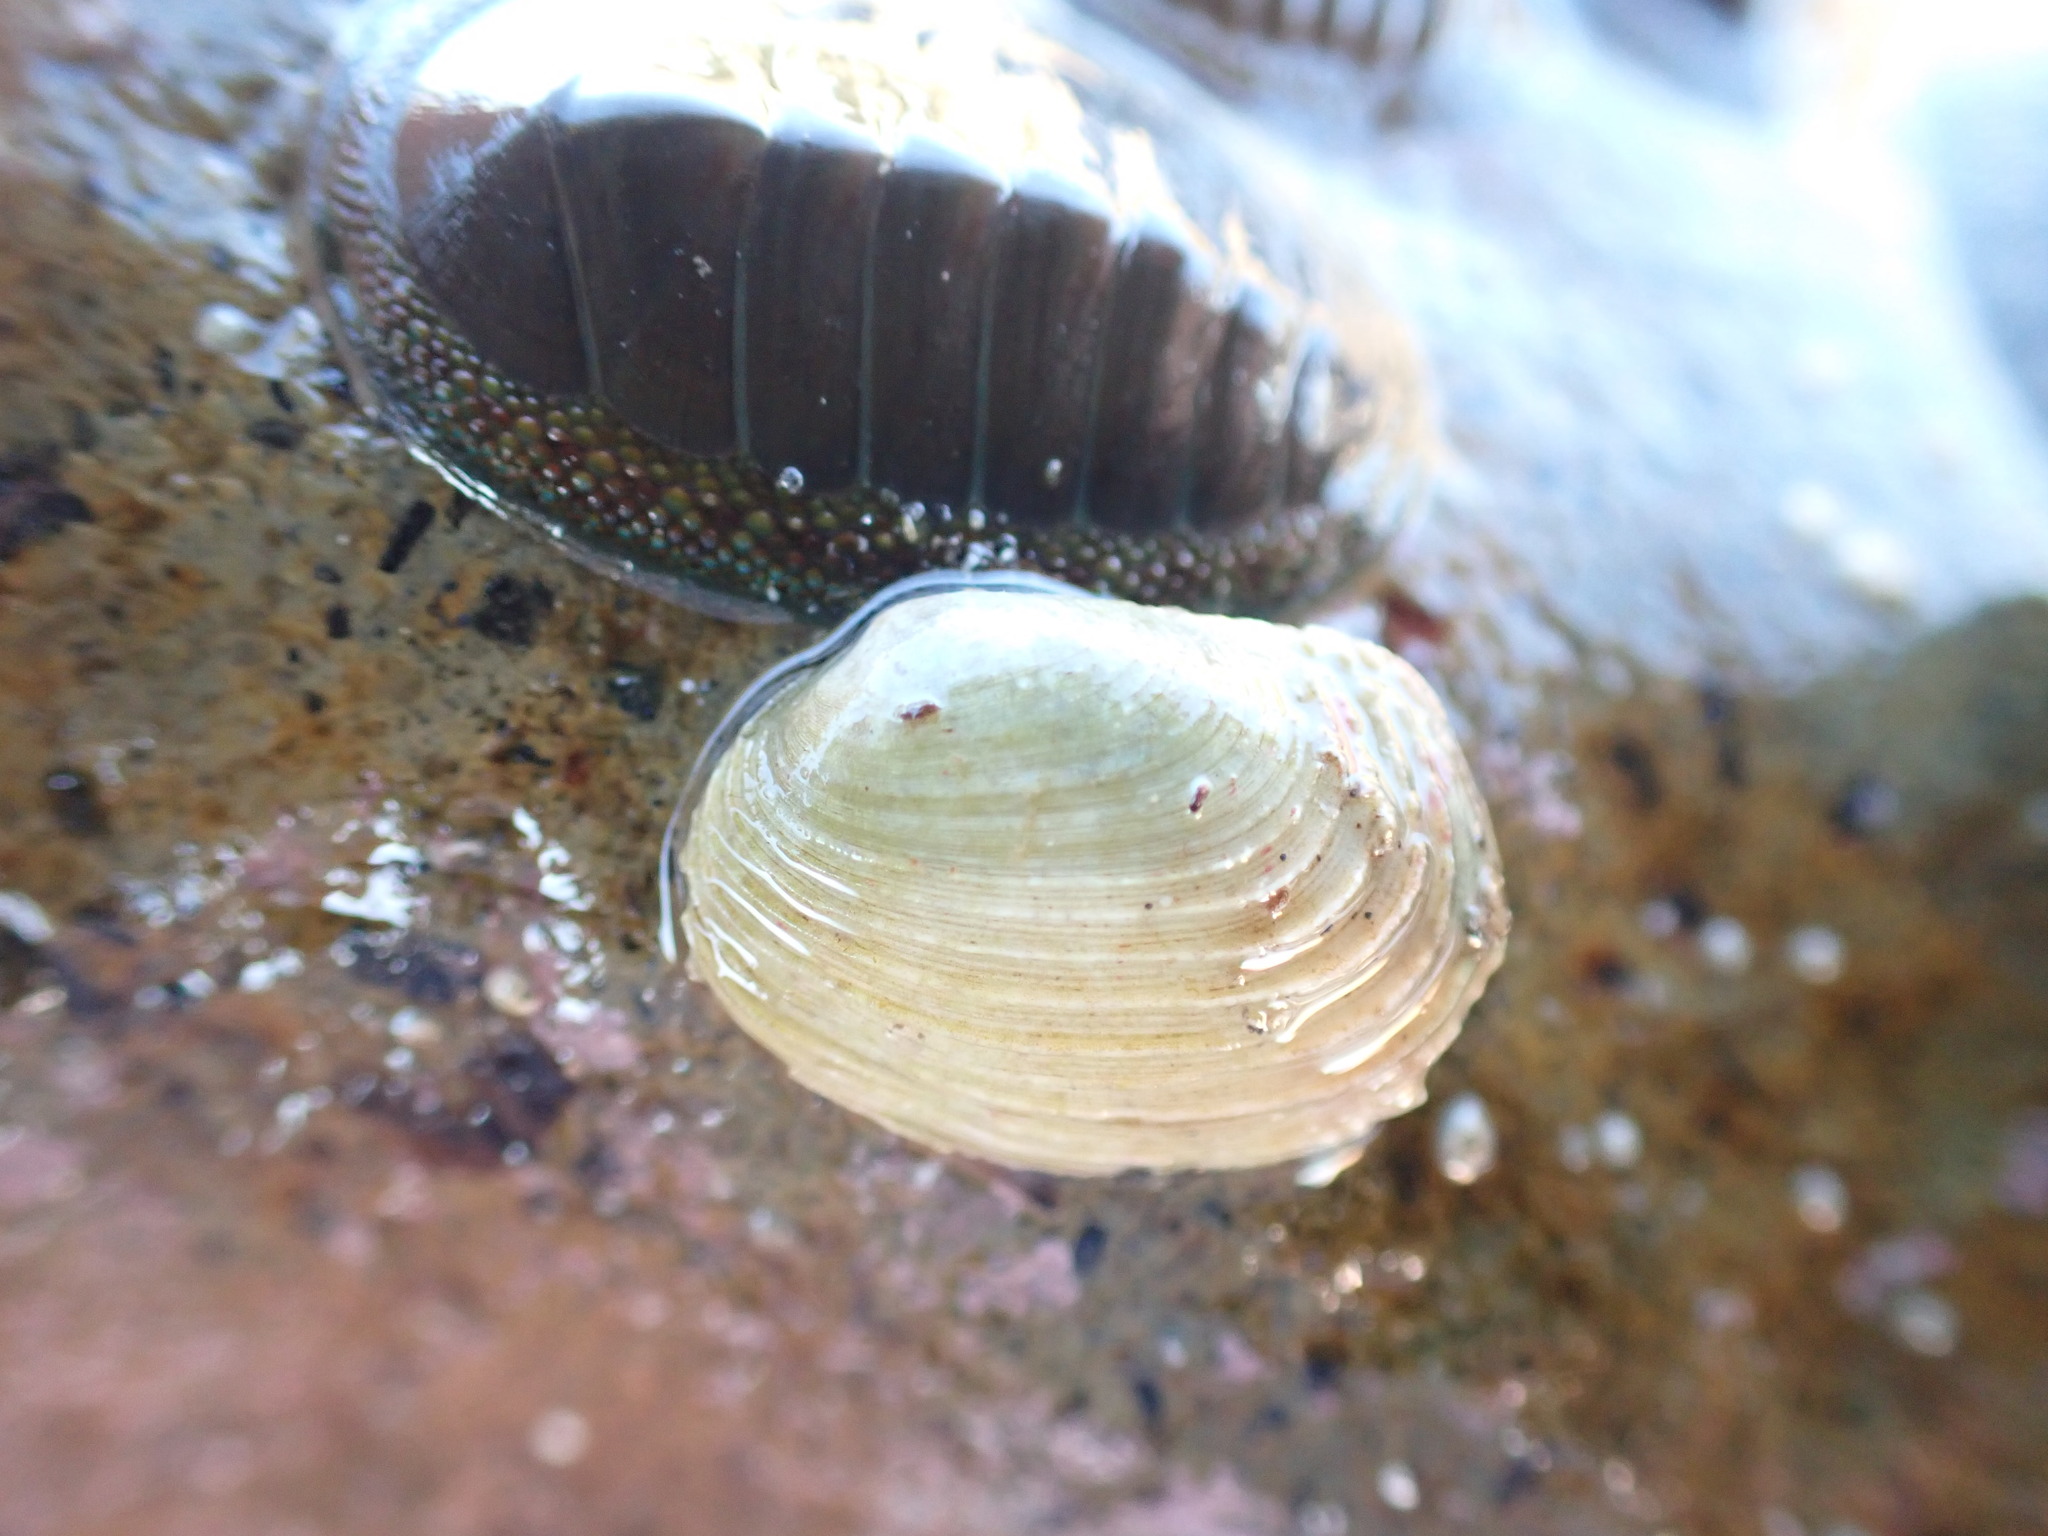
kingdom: Animalia
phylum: Mollusca
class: Bivalvia
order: Venerida
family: Veneridae
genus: Irus
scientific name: Irus elegans
